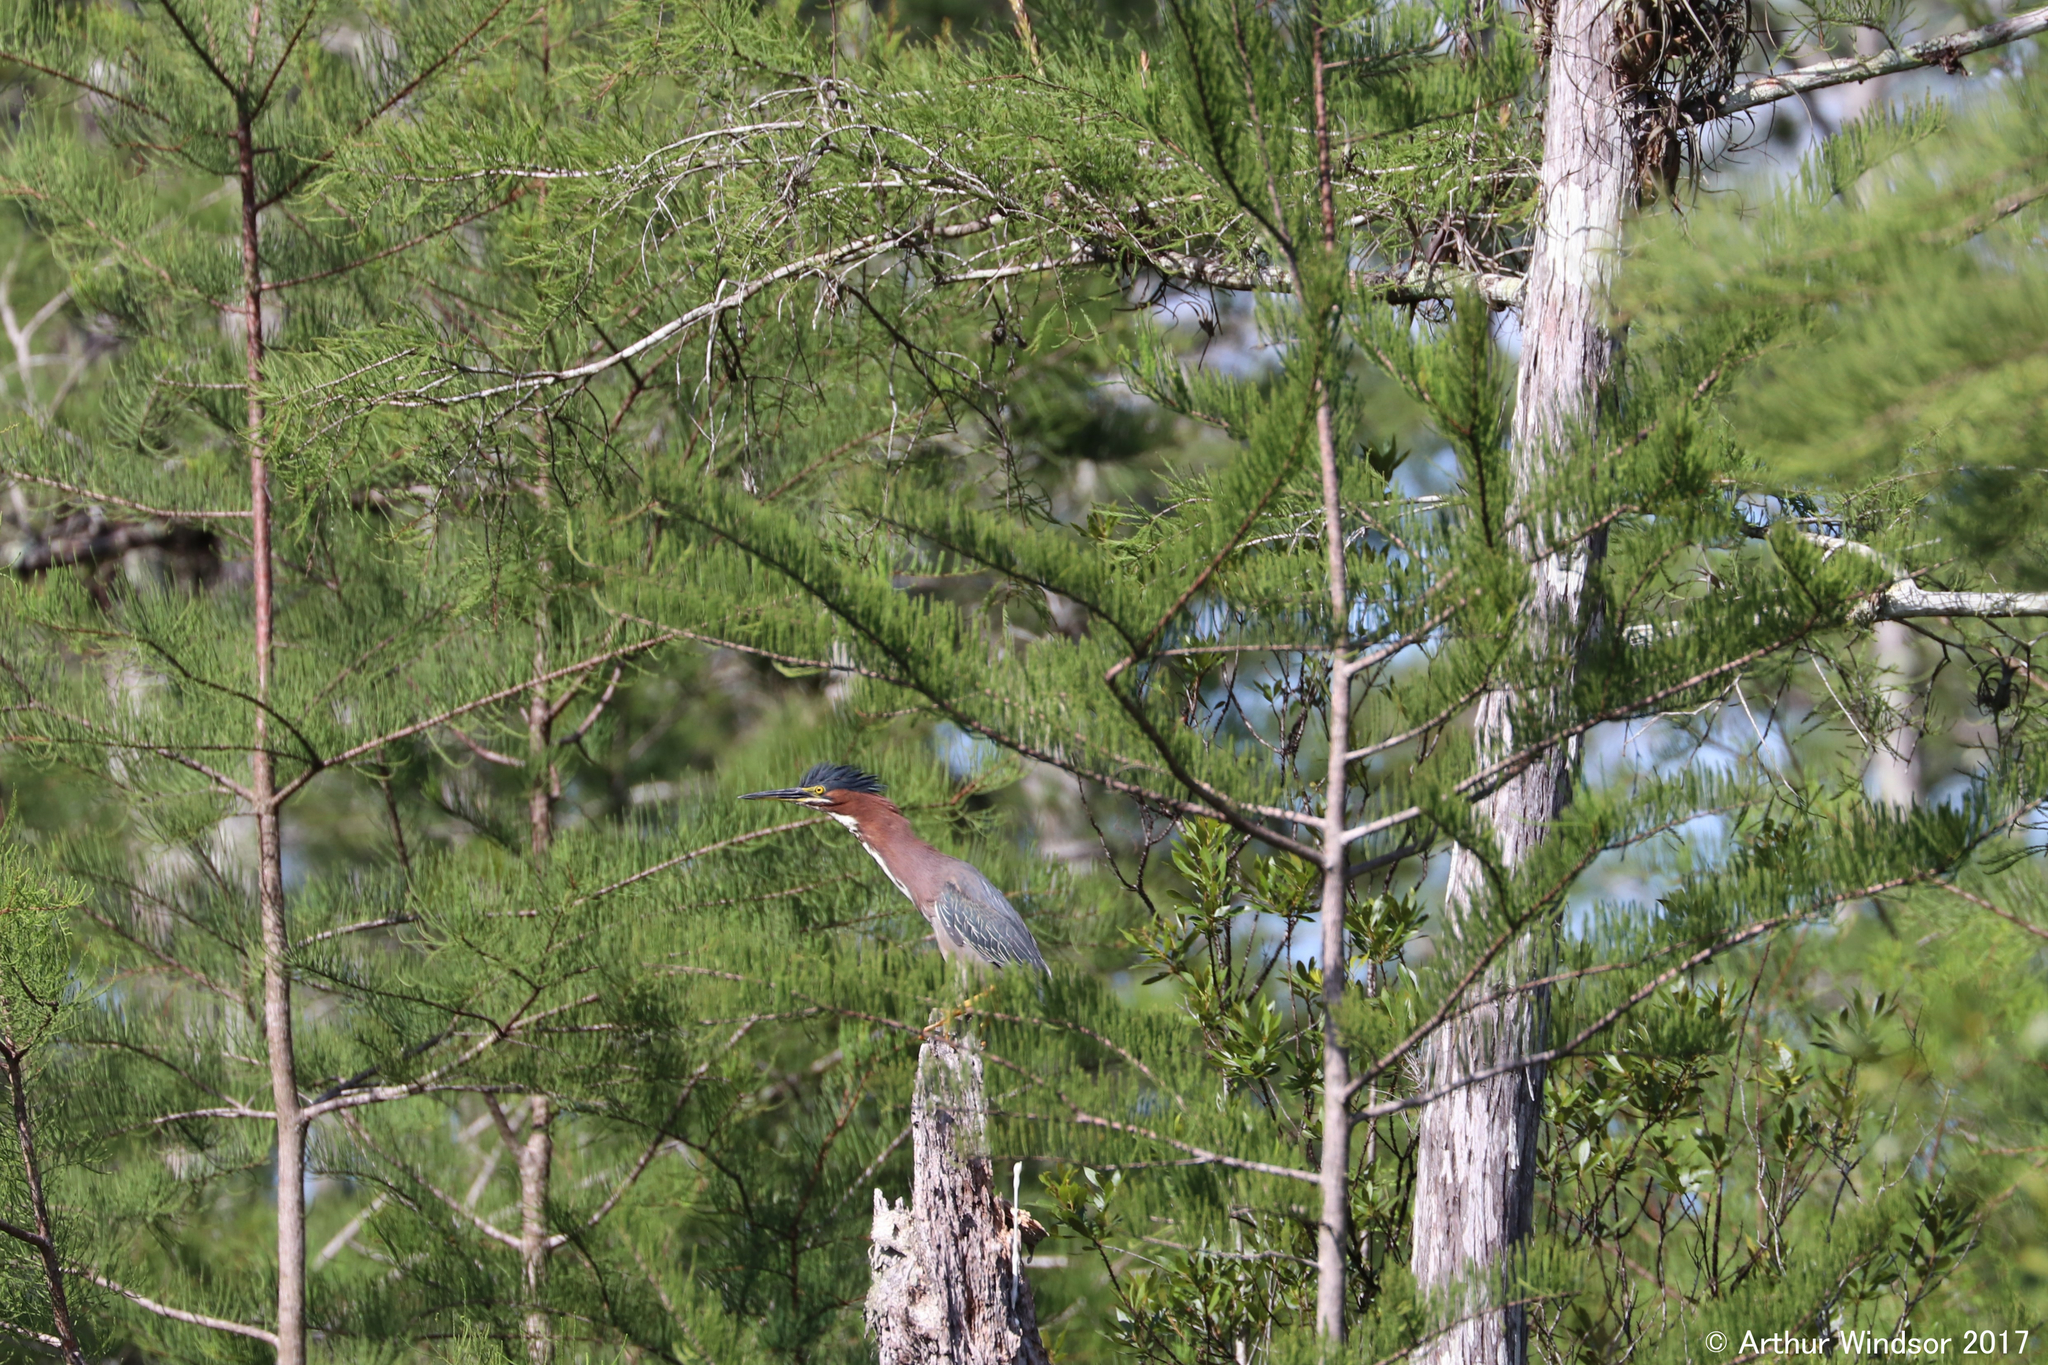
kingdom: Animalia
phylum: Chordata
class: Aves
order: Pelecaniformes
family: Ardeidae
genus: Butorides
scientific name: Butorides virescens
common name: Green heron
